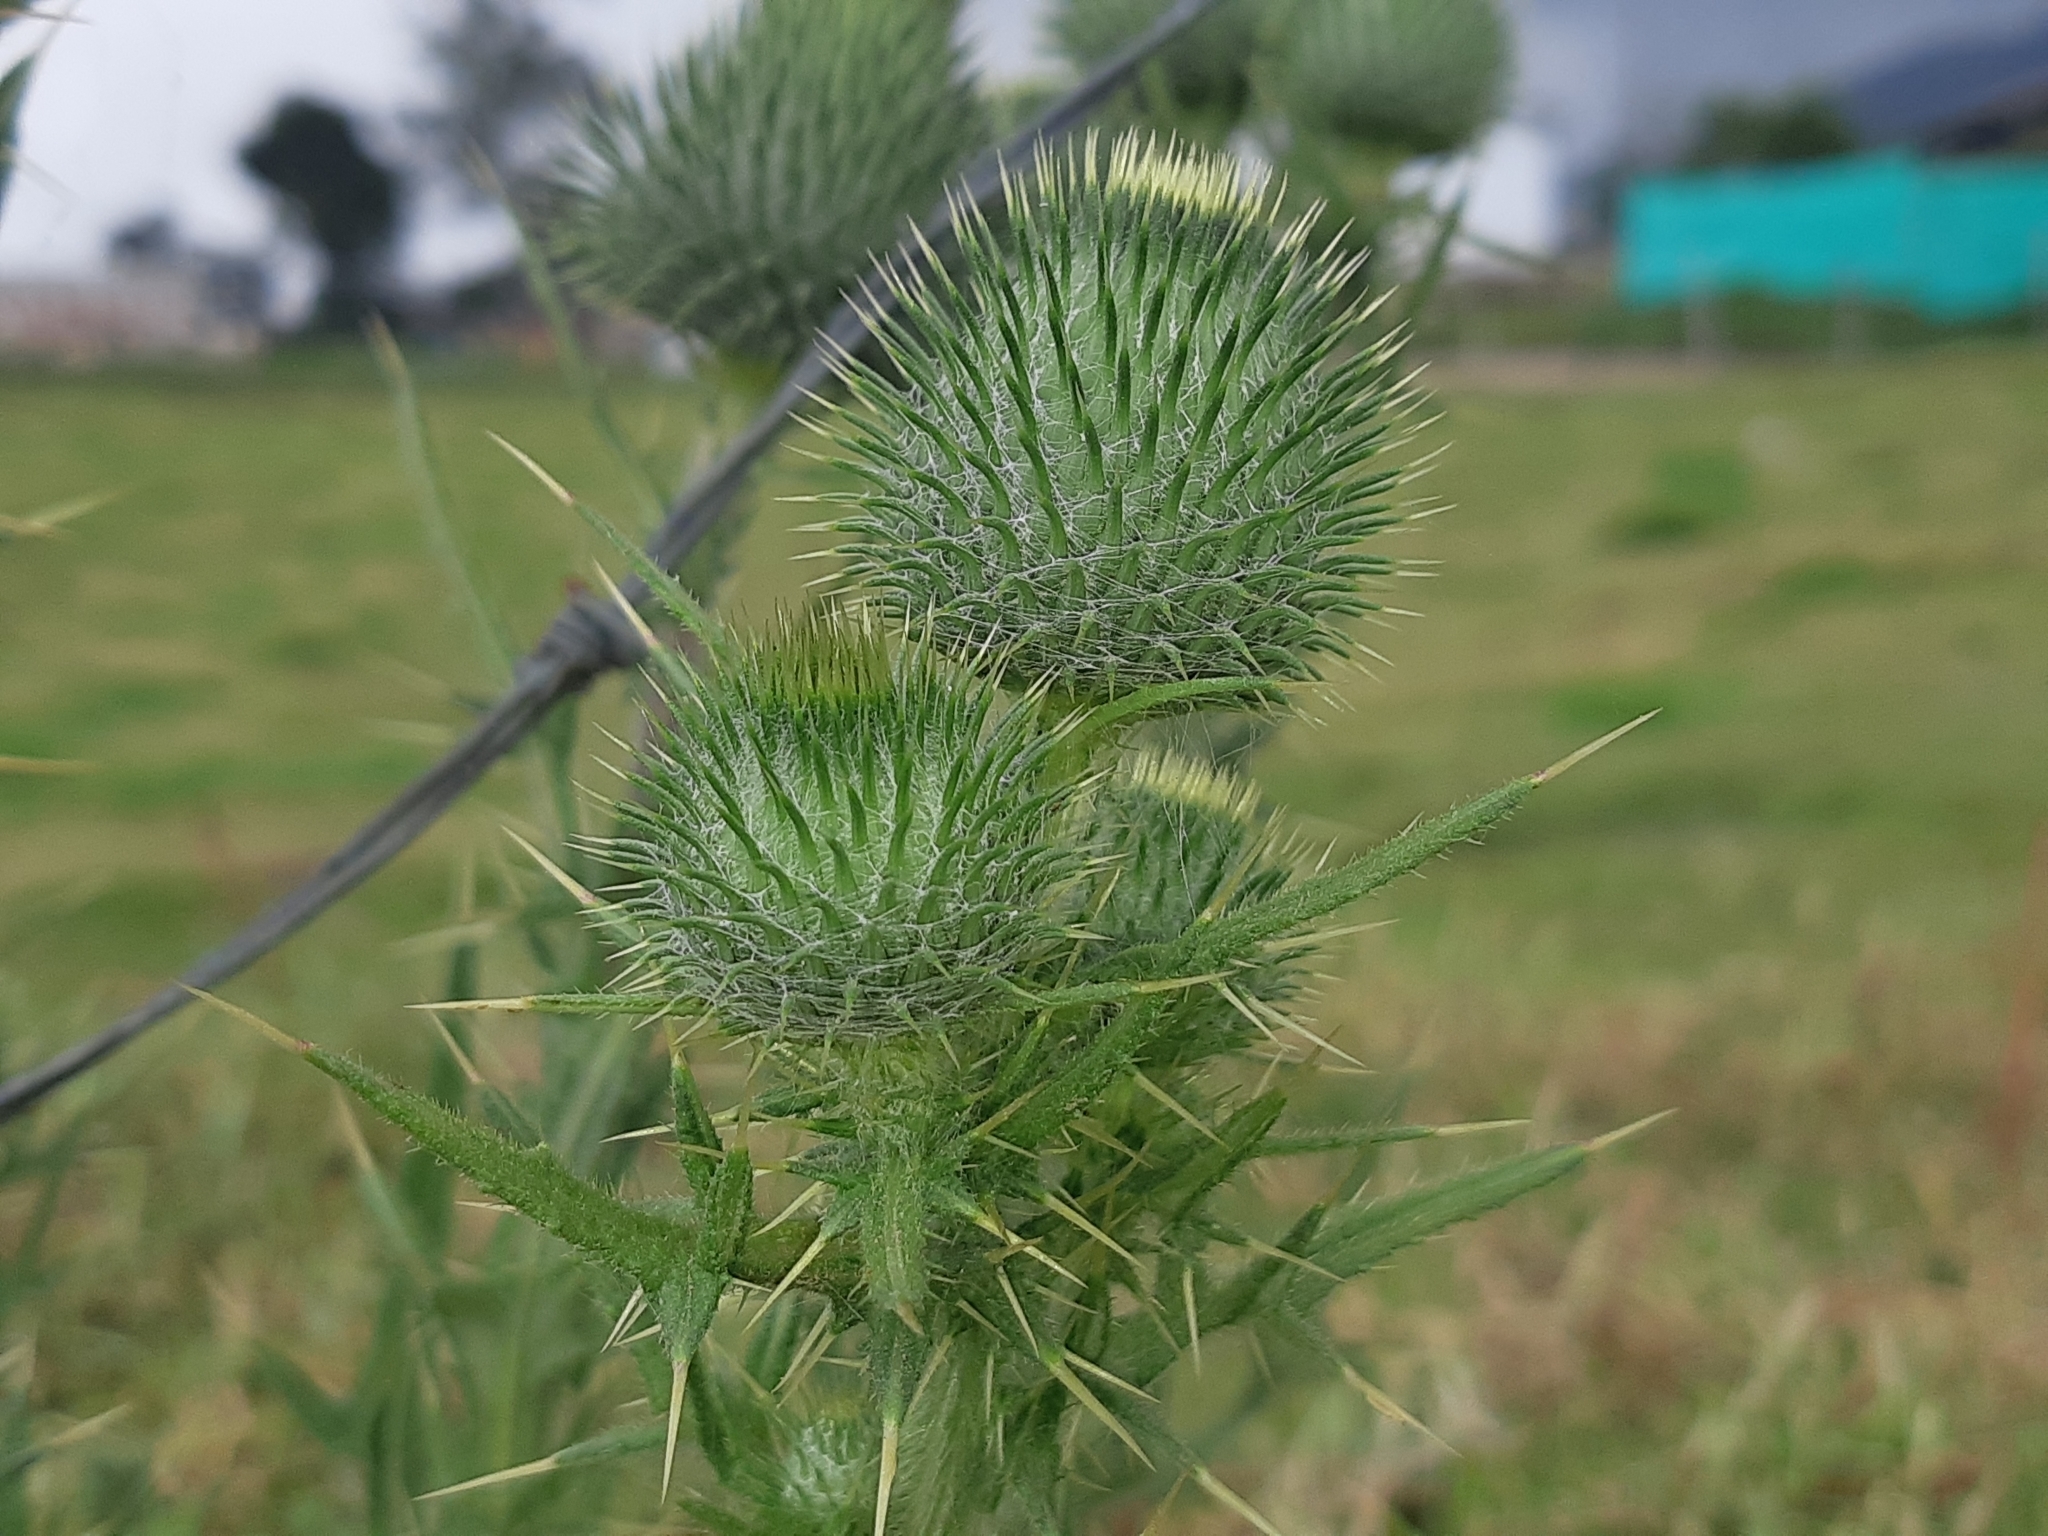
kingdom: Plantae
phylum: Tracheophyta
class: Magnoliopsida
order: Asterales
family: Asteraceae
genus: Cirsium
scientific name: Cirsium vulgare
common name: Bull thistle
